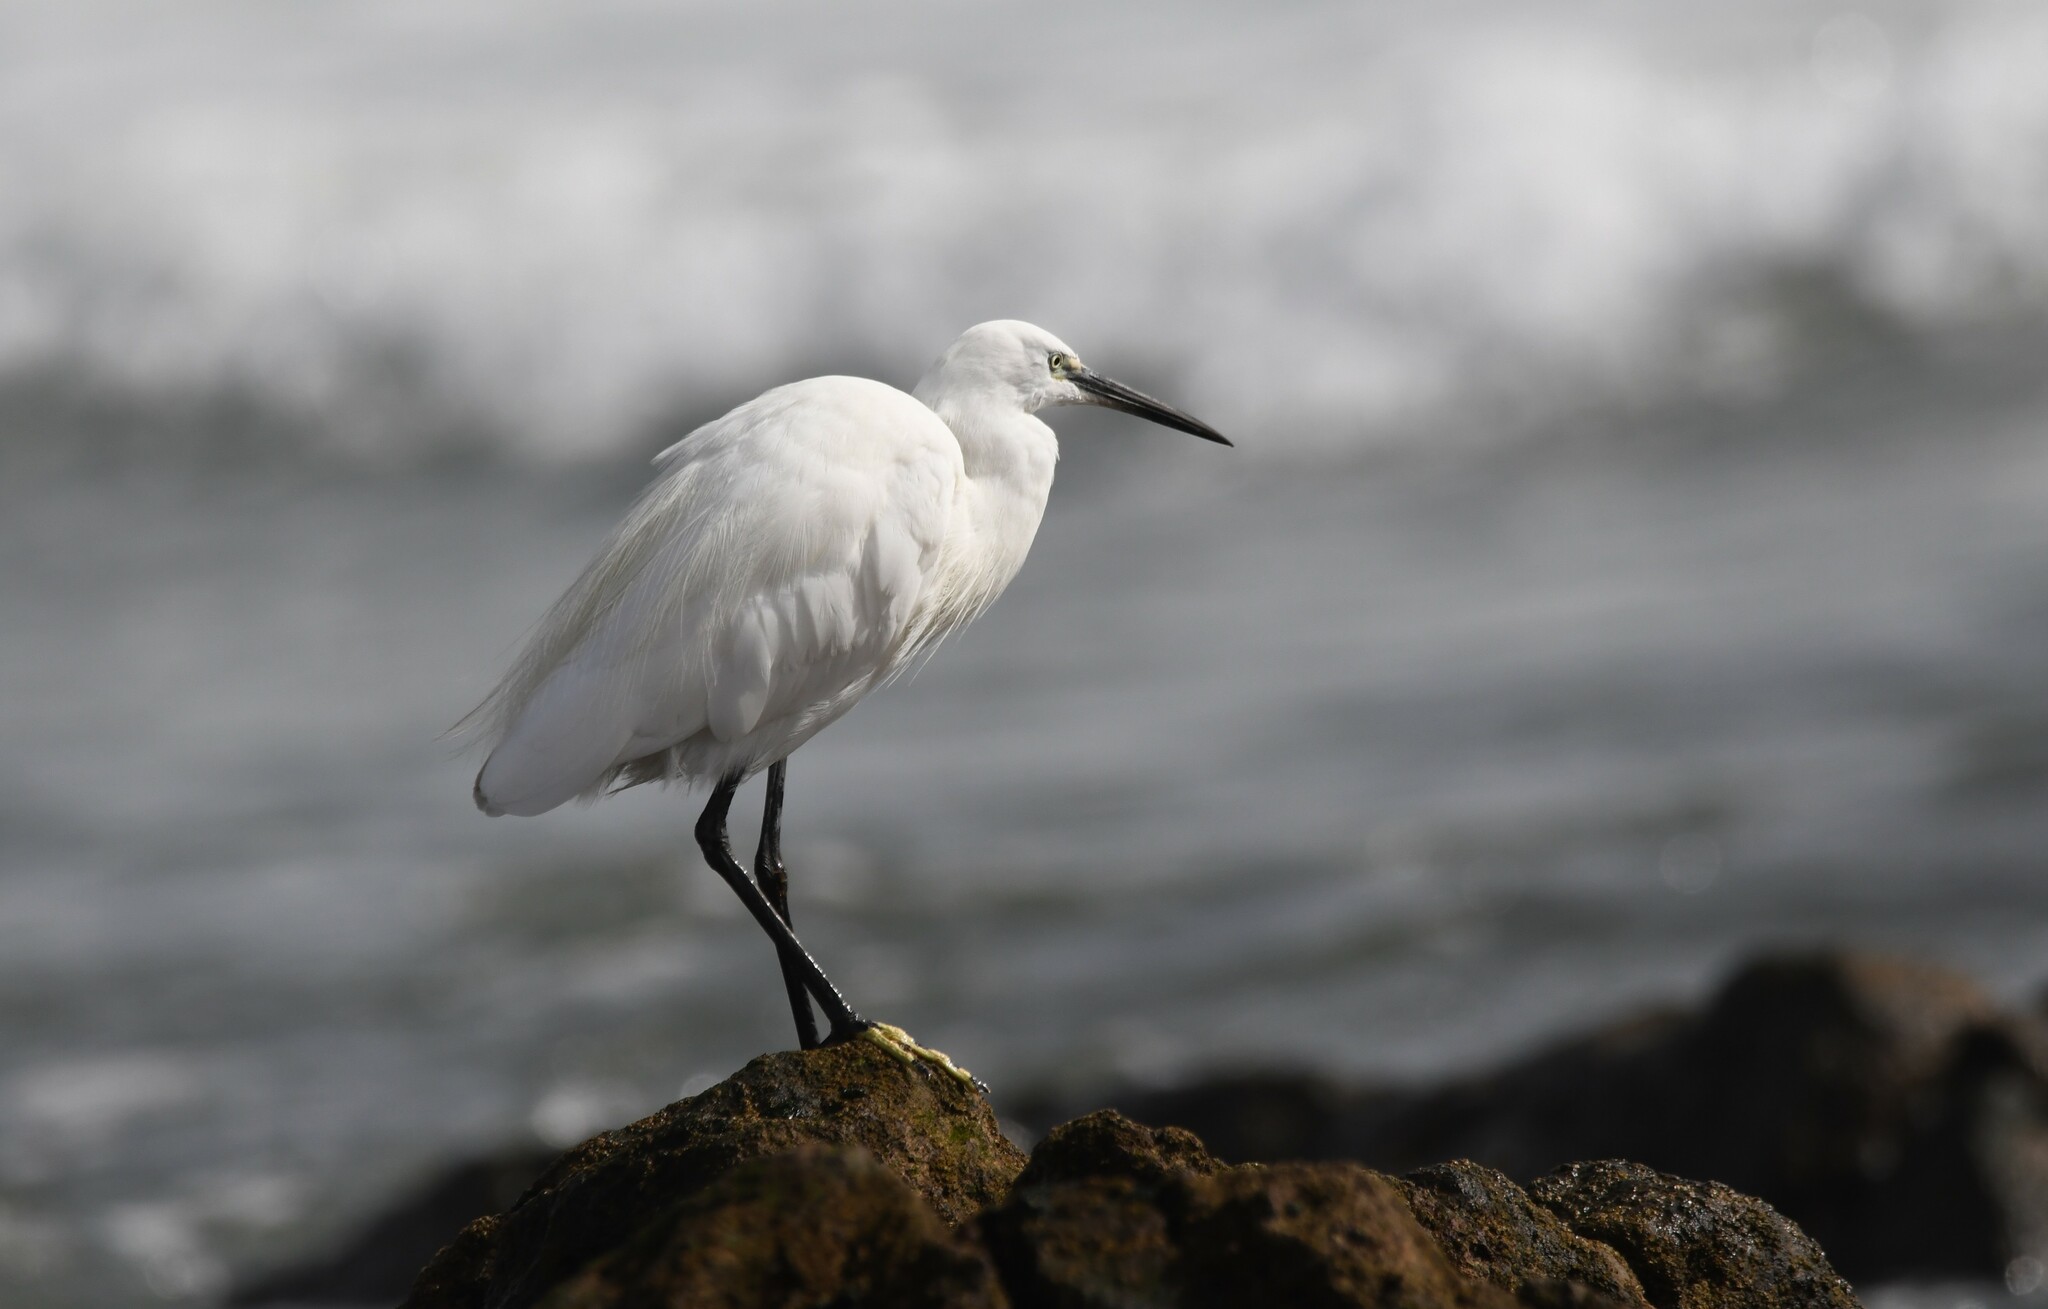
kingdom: Animalia
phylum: Chordata
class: Aves
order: Pelecaniformes
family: Ardeidae
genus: Egretta
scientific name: Egretta garzetta
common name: Little egret
